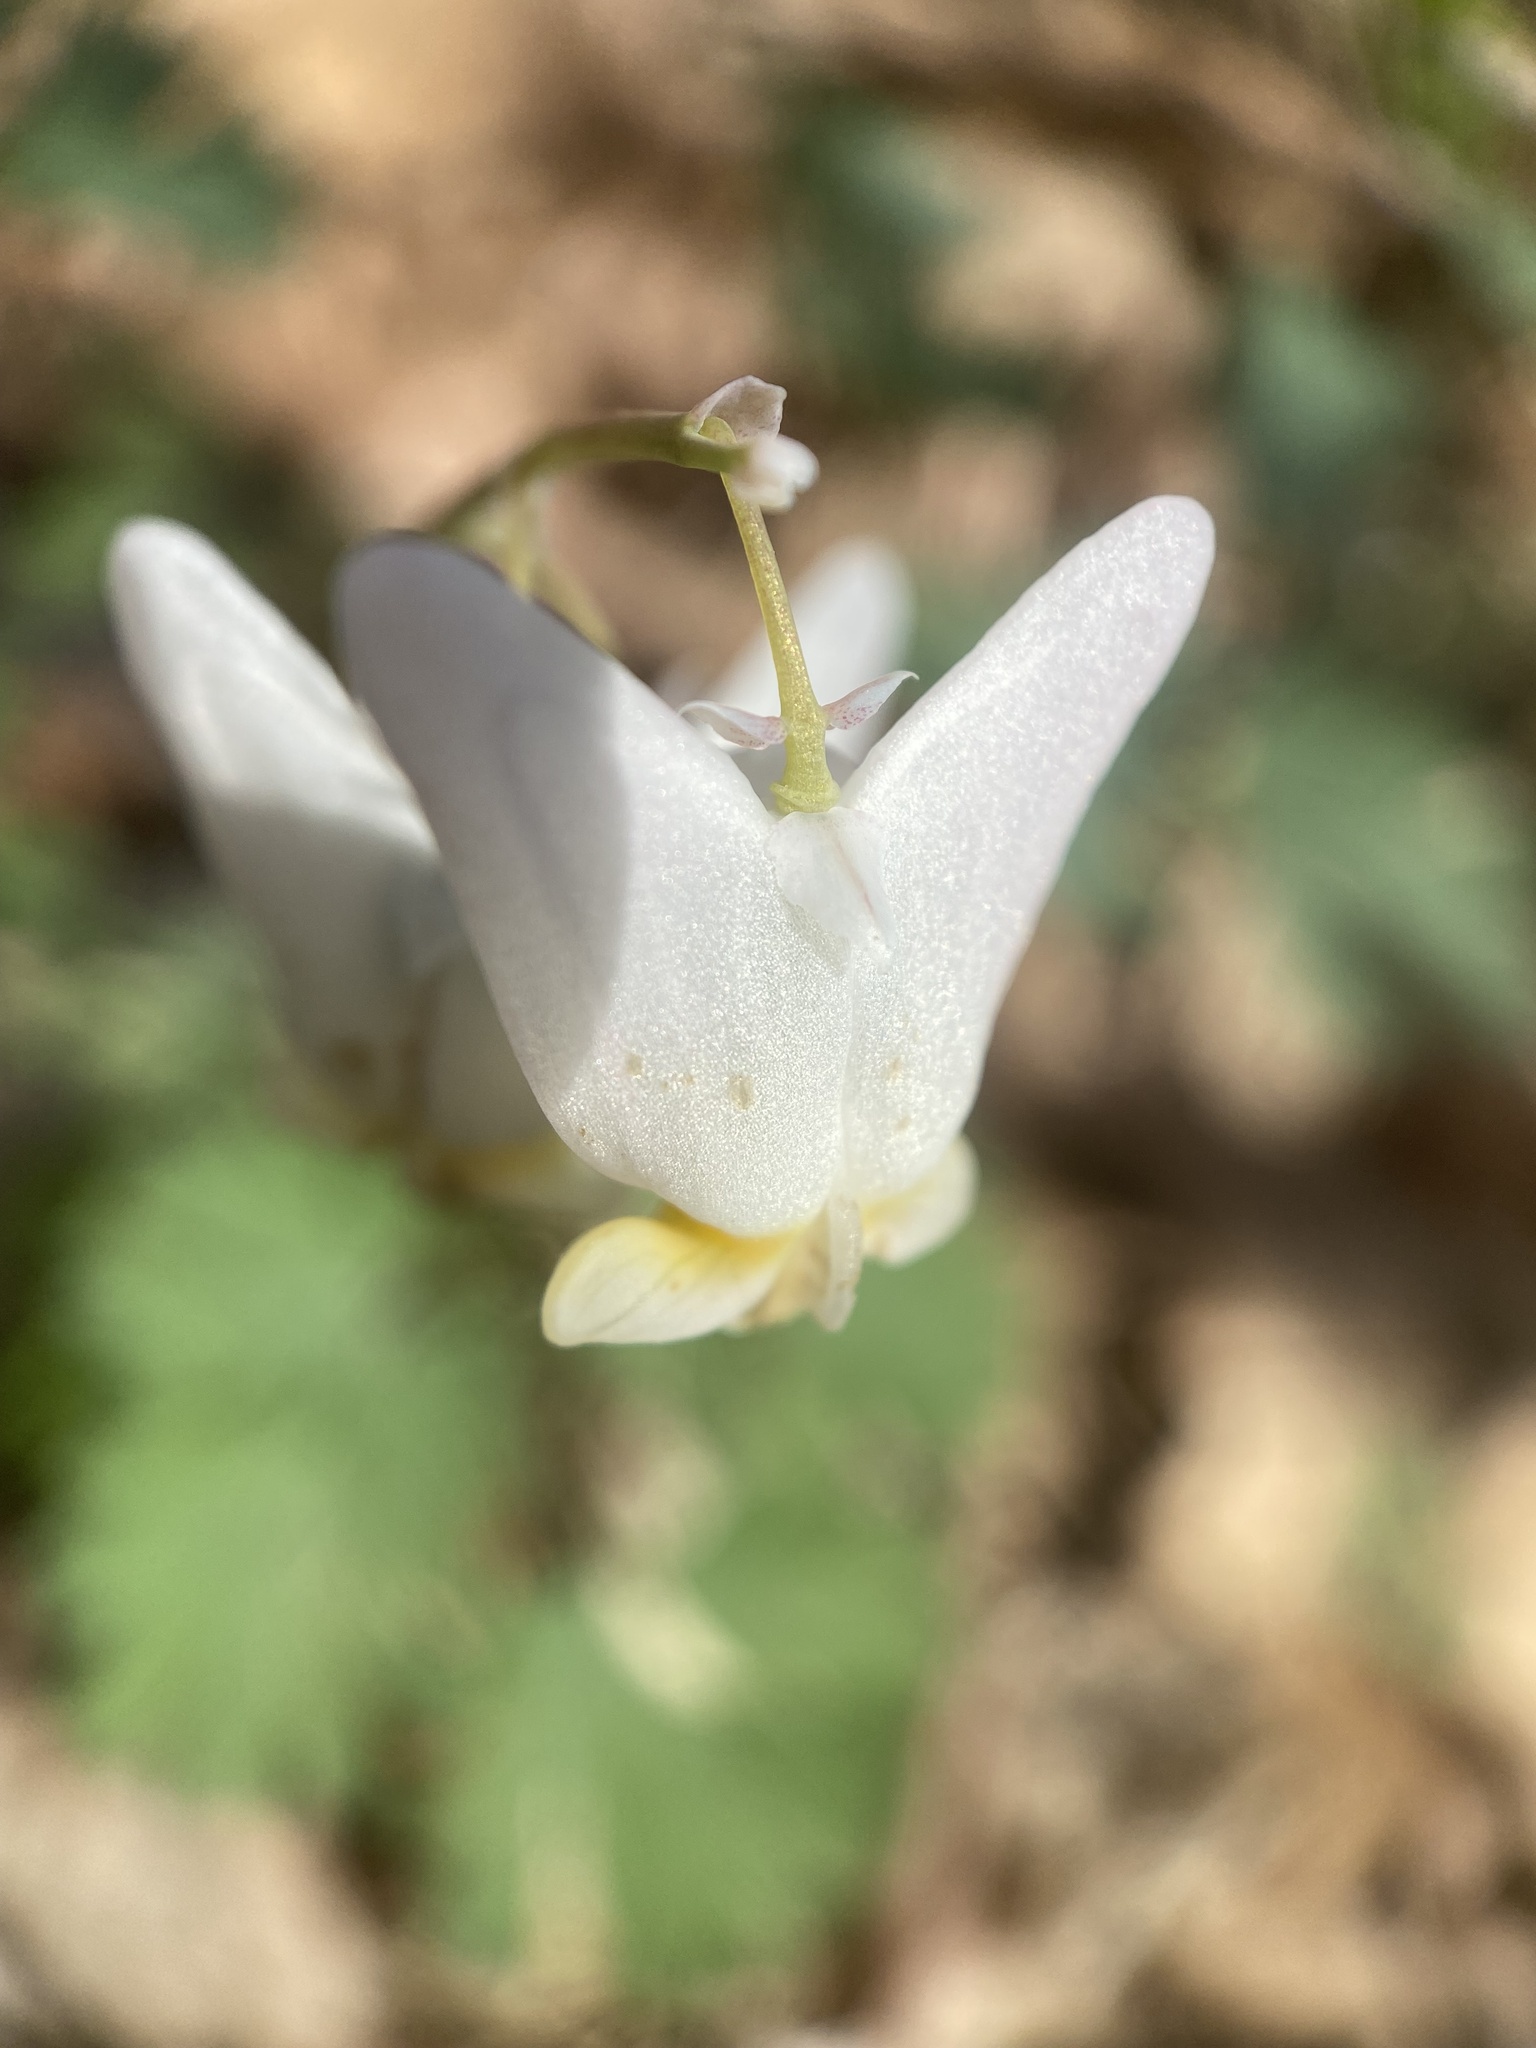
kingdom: Plantae
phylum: Tracheophyta
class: Magnoliopsida
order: Ranunculales
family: Papaveraceae
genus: Dicentra
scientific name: Dicentra cucullaria
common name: Dutchman's breeches
